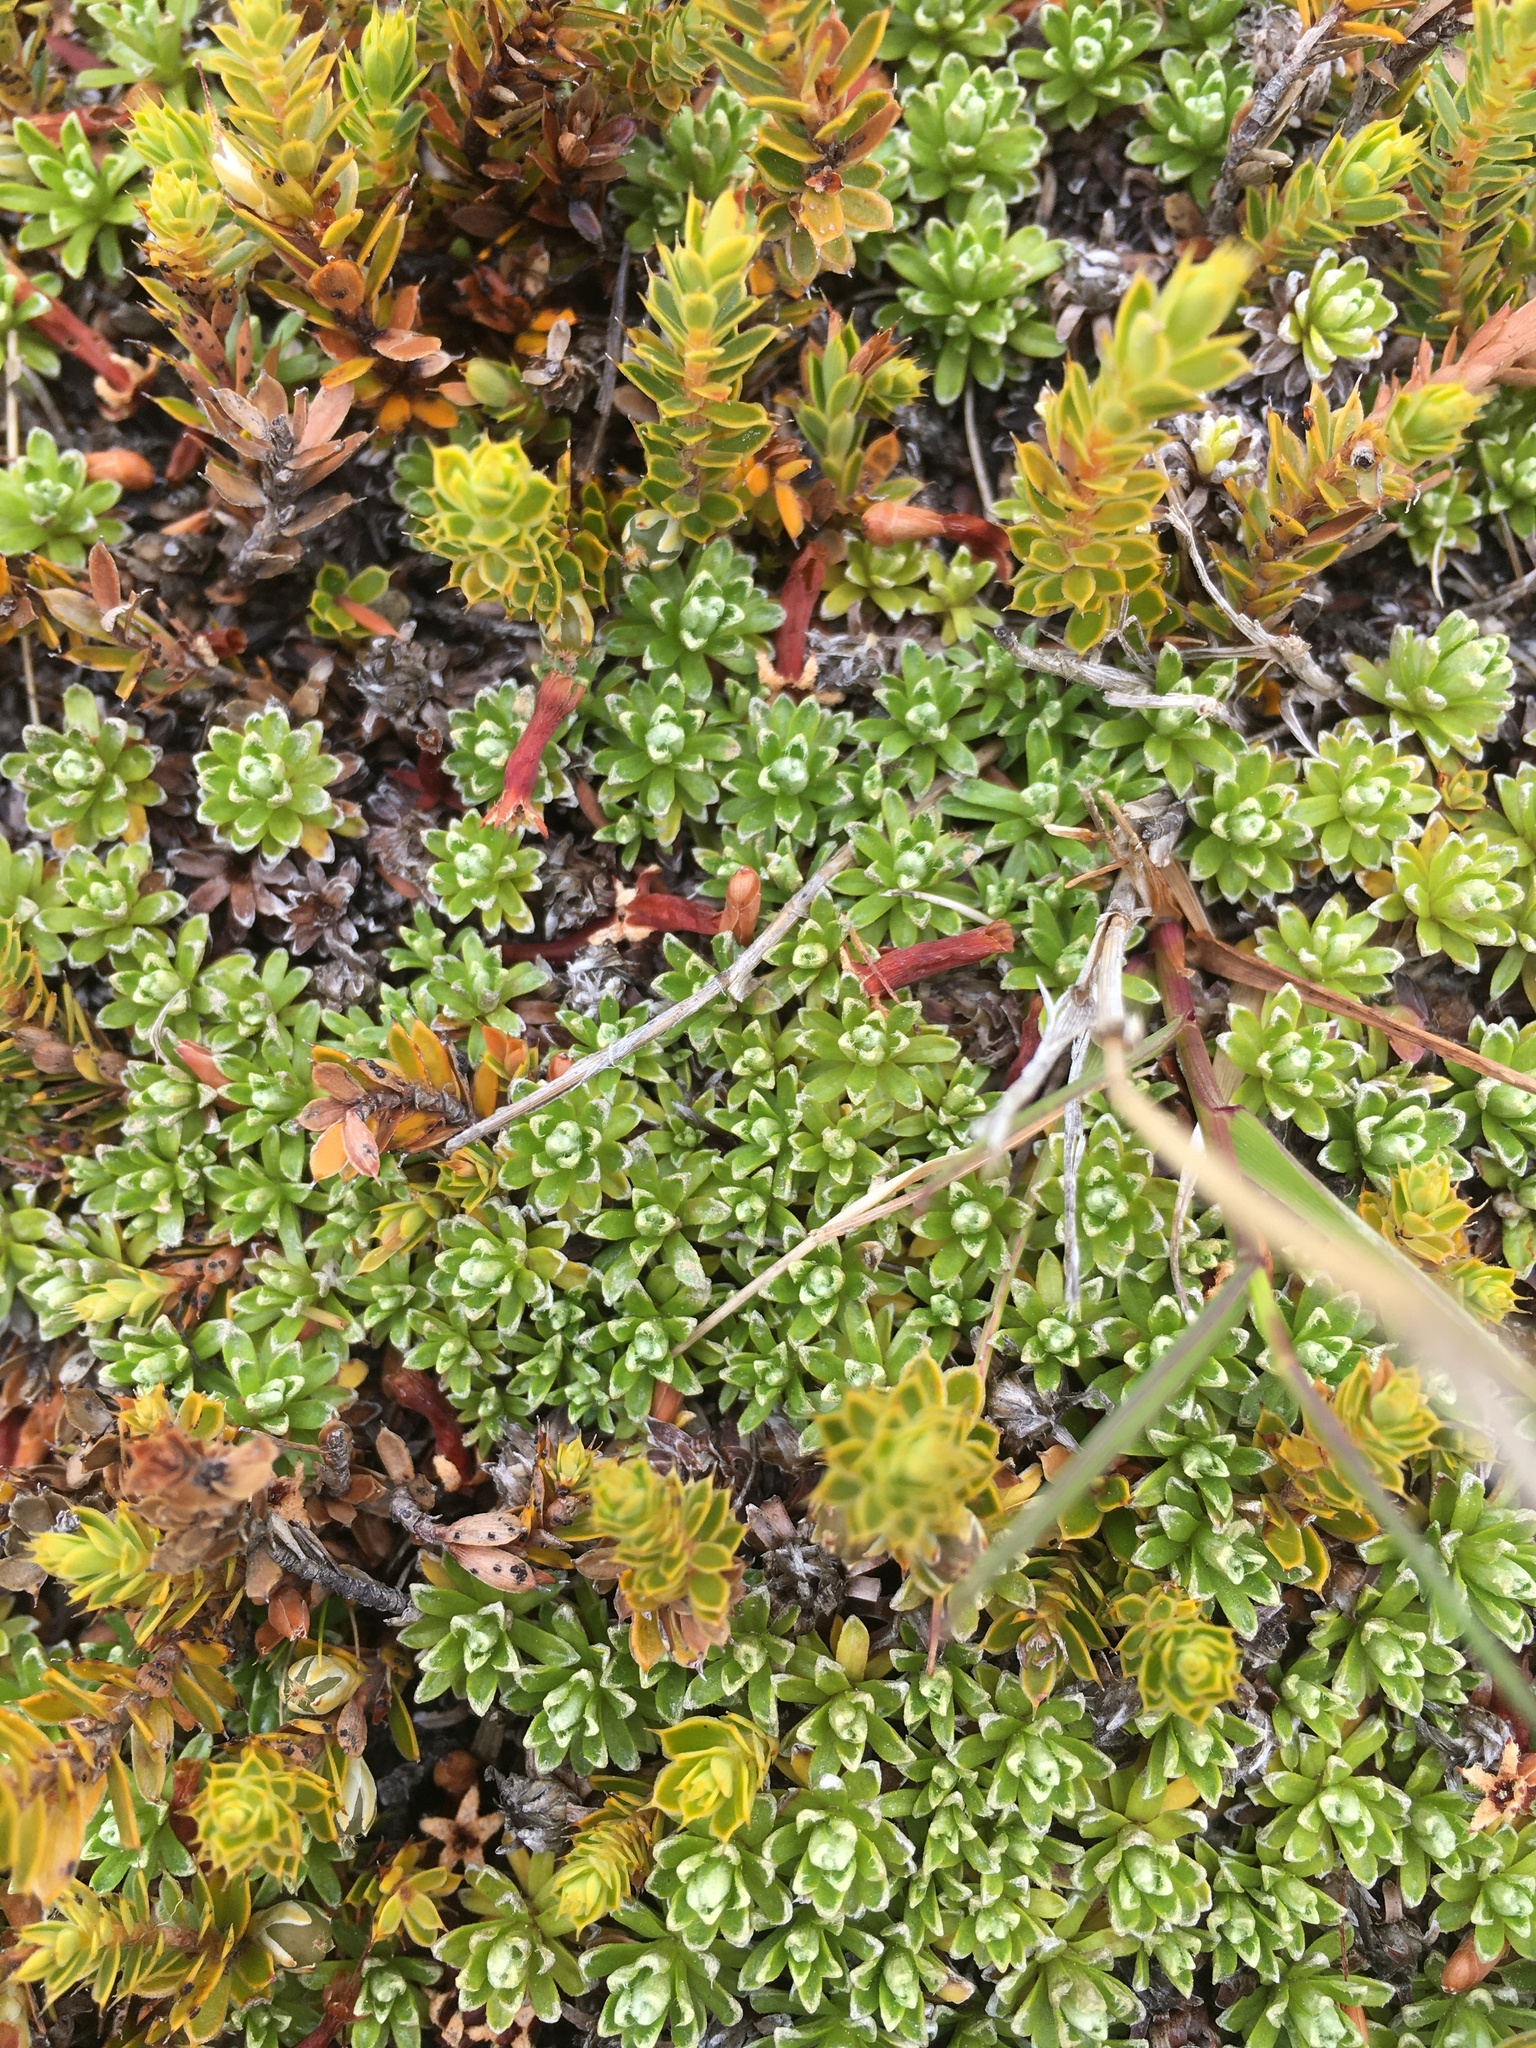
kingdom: Plantae
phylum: Tracheophyta
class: Magnoliopsida
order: Asterales
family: Asteraceae
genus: Raoulia
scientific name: Raoulia subsericea
